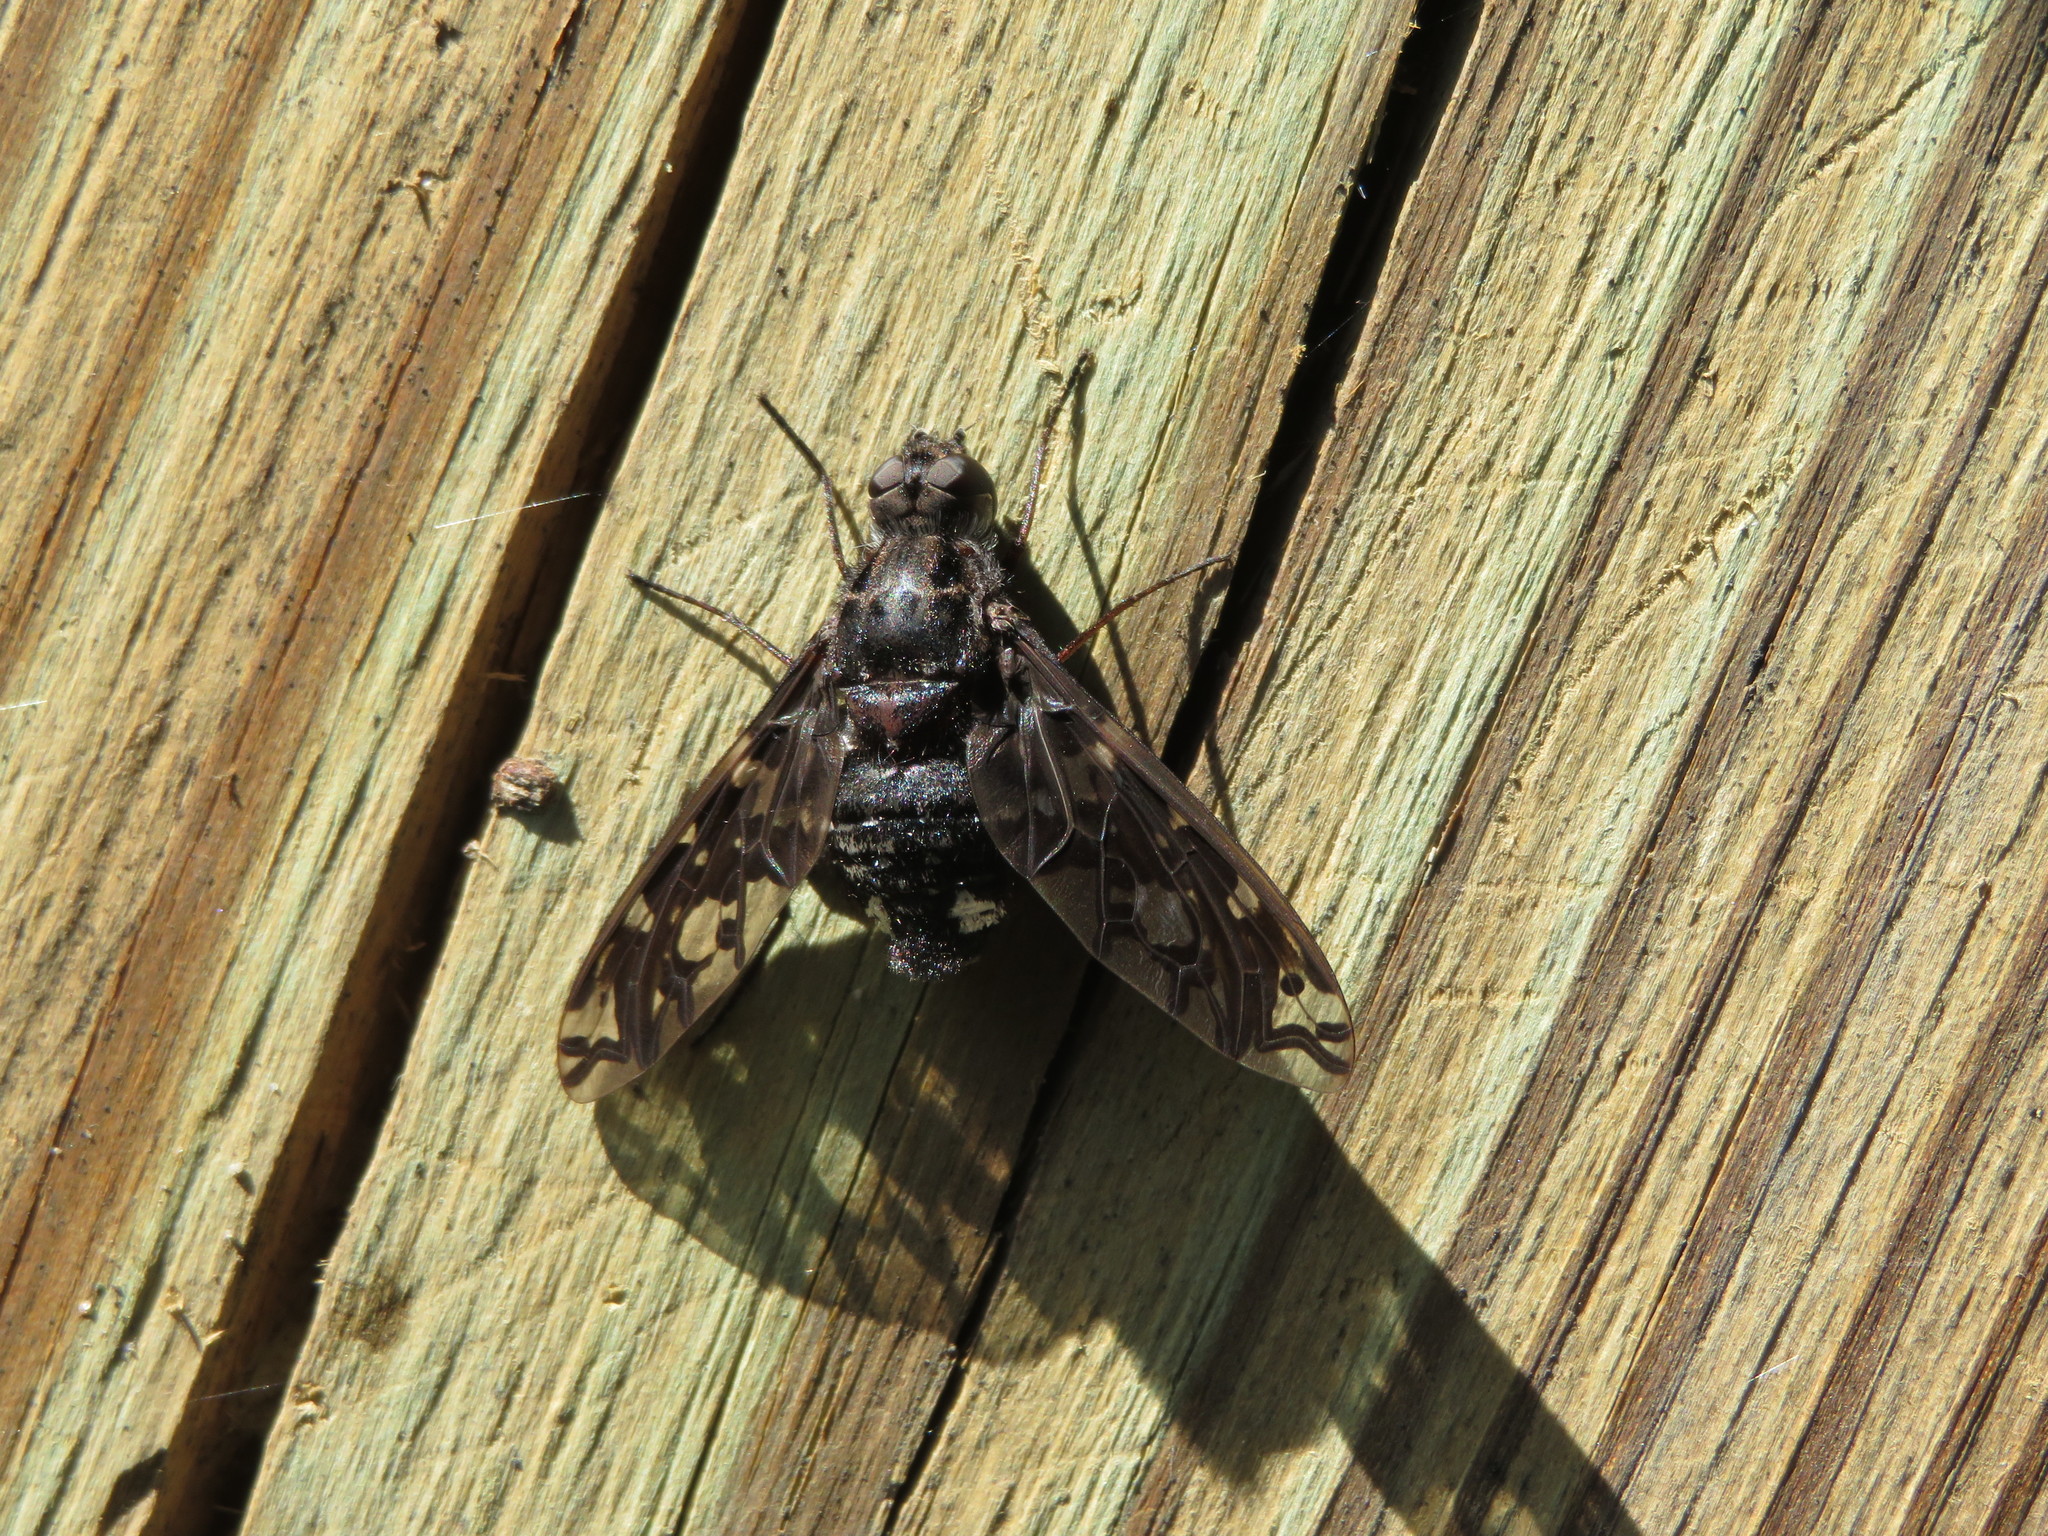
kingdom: Animalia
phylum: Arthropoda
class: Insecta
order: Diptera
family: Bombyliidae
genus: Xenox
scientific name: Xenox tigrinus
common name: Tiger bee fly
